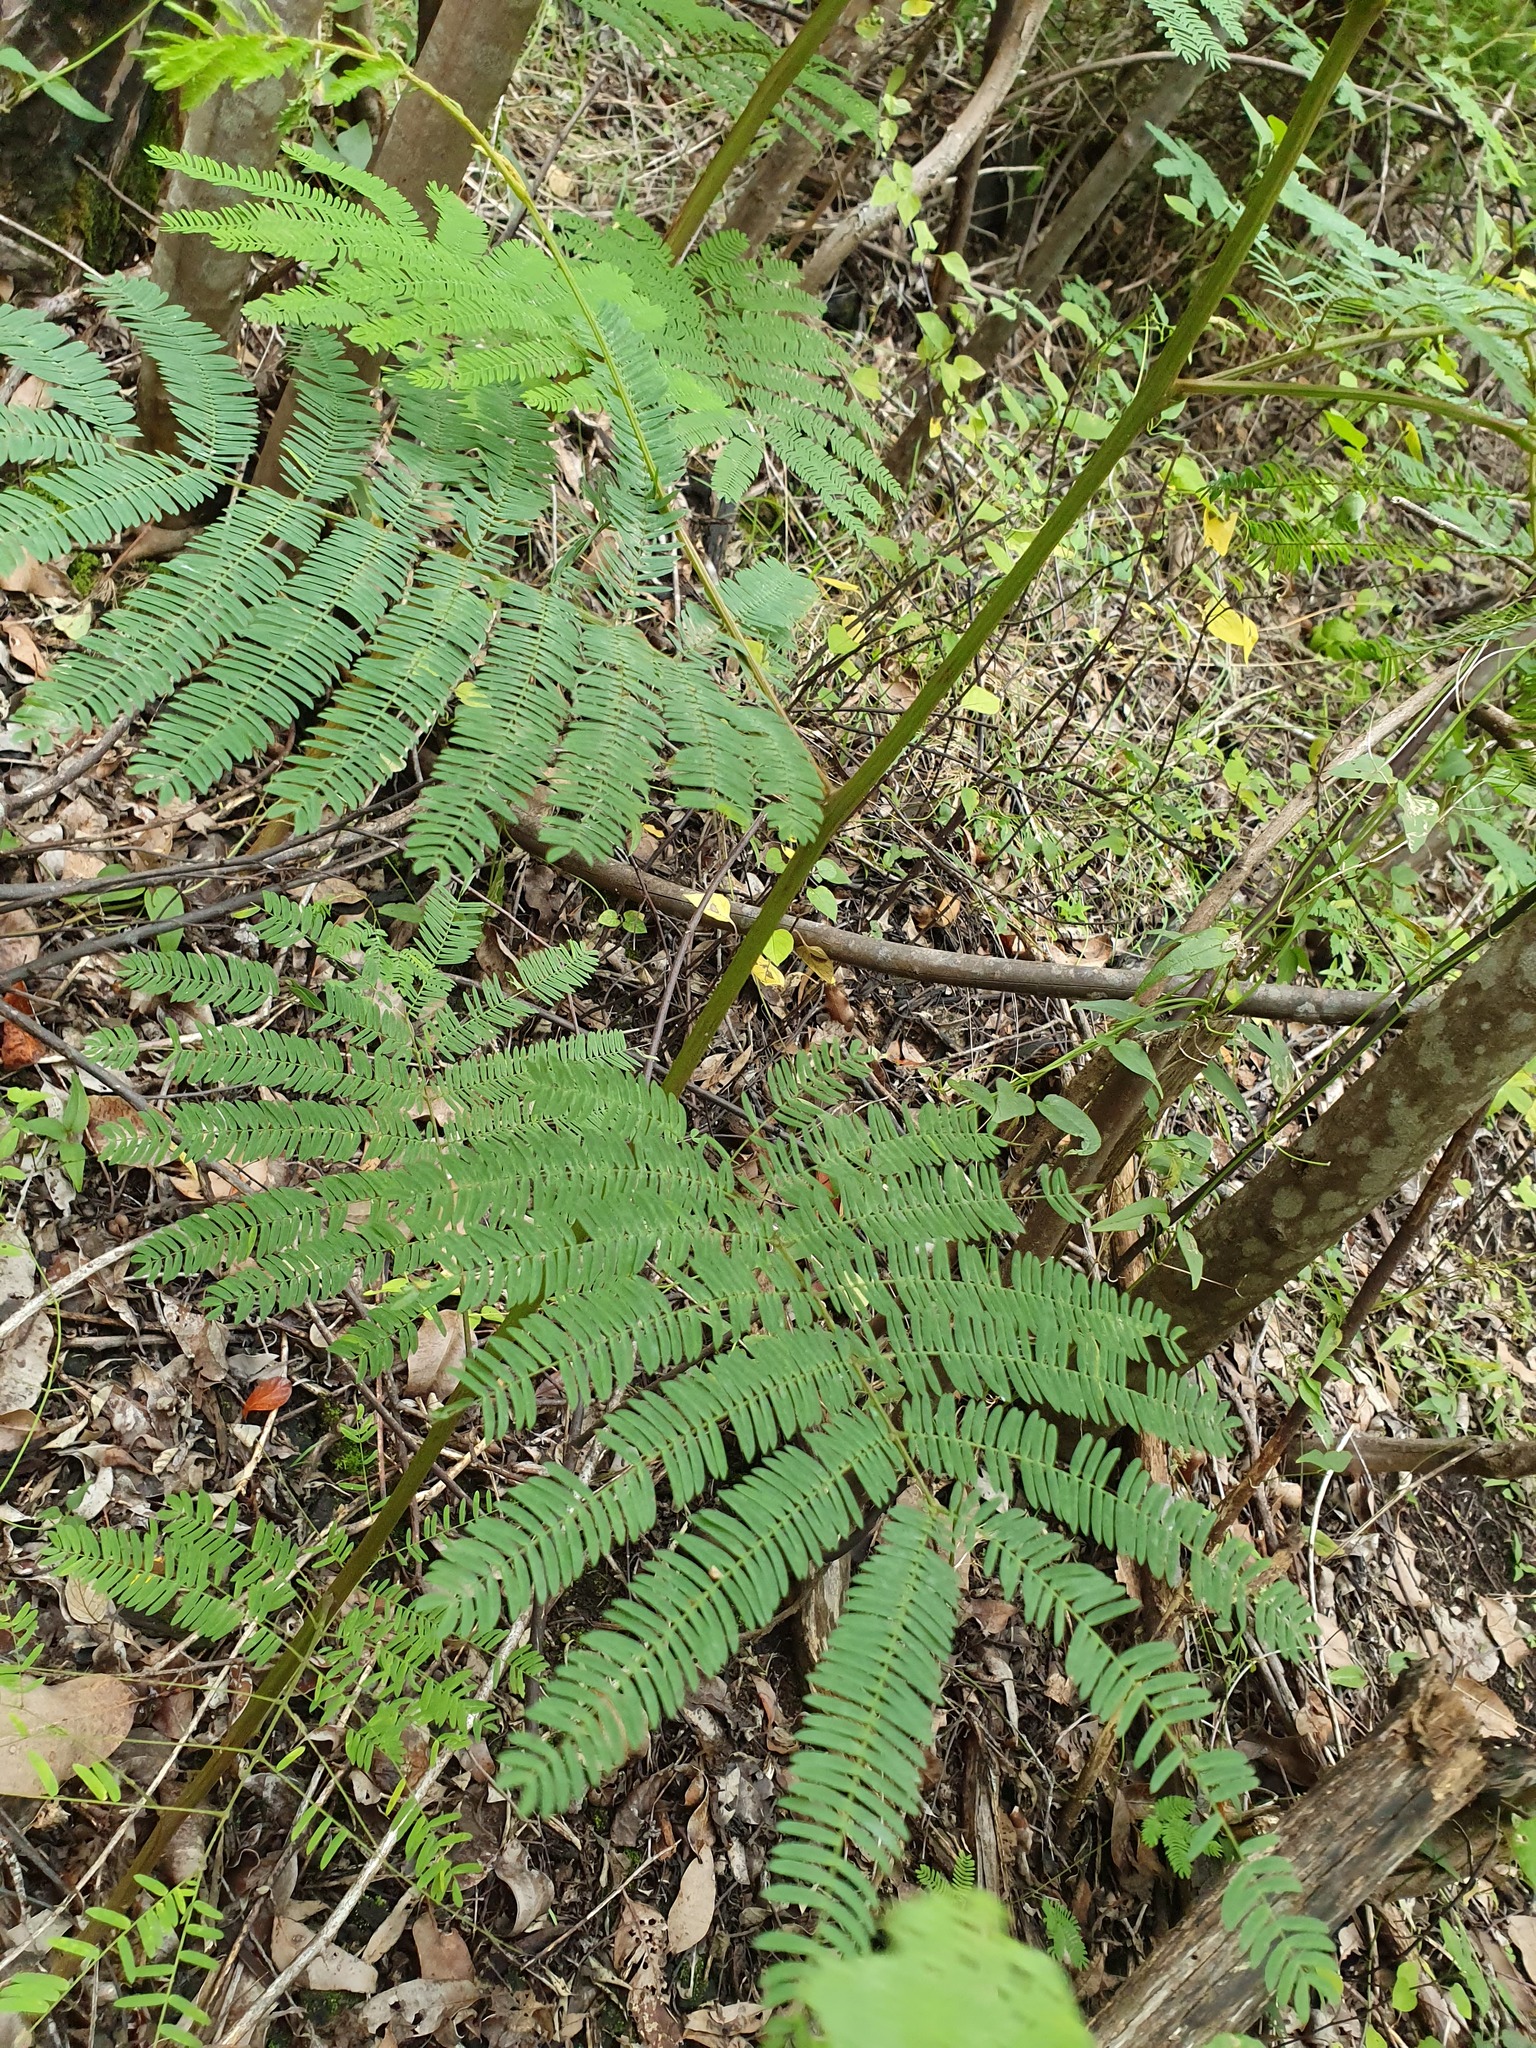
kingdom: Plantae
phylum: Tracheophyta
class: Magnoliopsida
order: Fabales
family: Fabaceae
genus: Paraserianthes
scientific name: Paraserianthes lophantha
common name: Plume albizia
